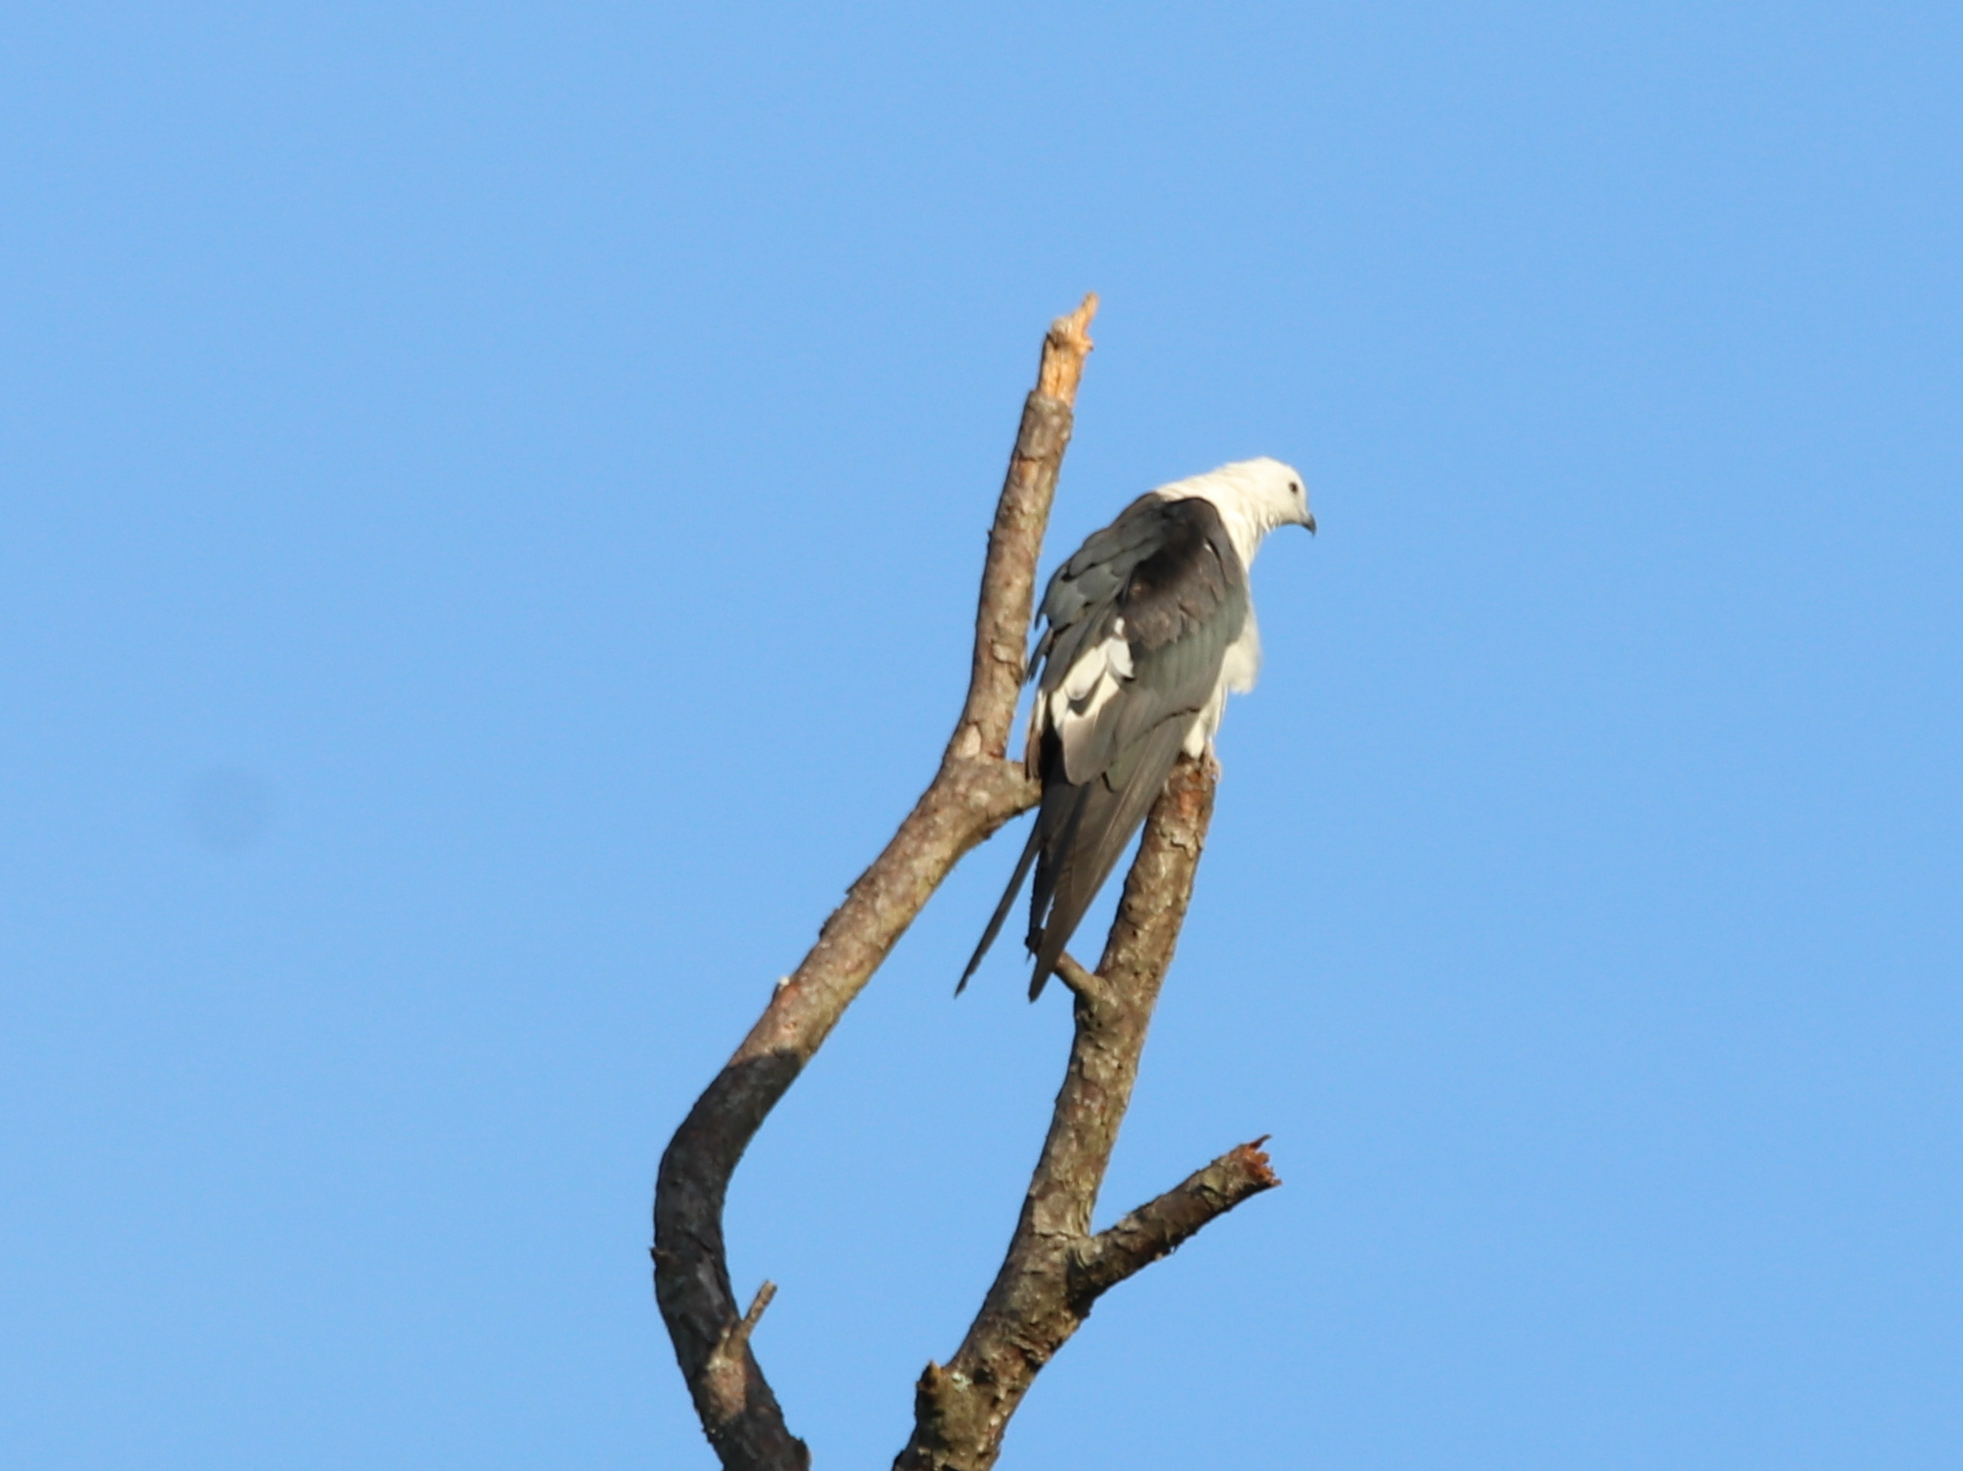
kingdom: Animalia
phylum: Chordata
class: Aves
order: Accipitriformes
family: Accipitridae
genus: Elanoides
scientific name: Elanoides forficatus
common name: Swallow-tailed kite
